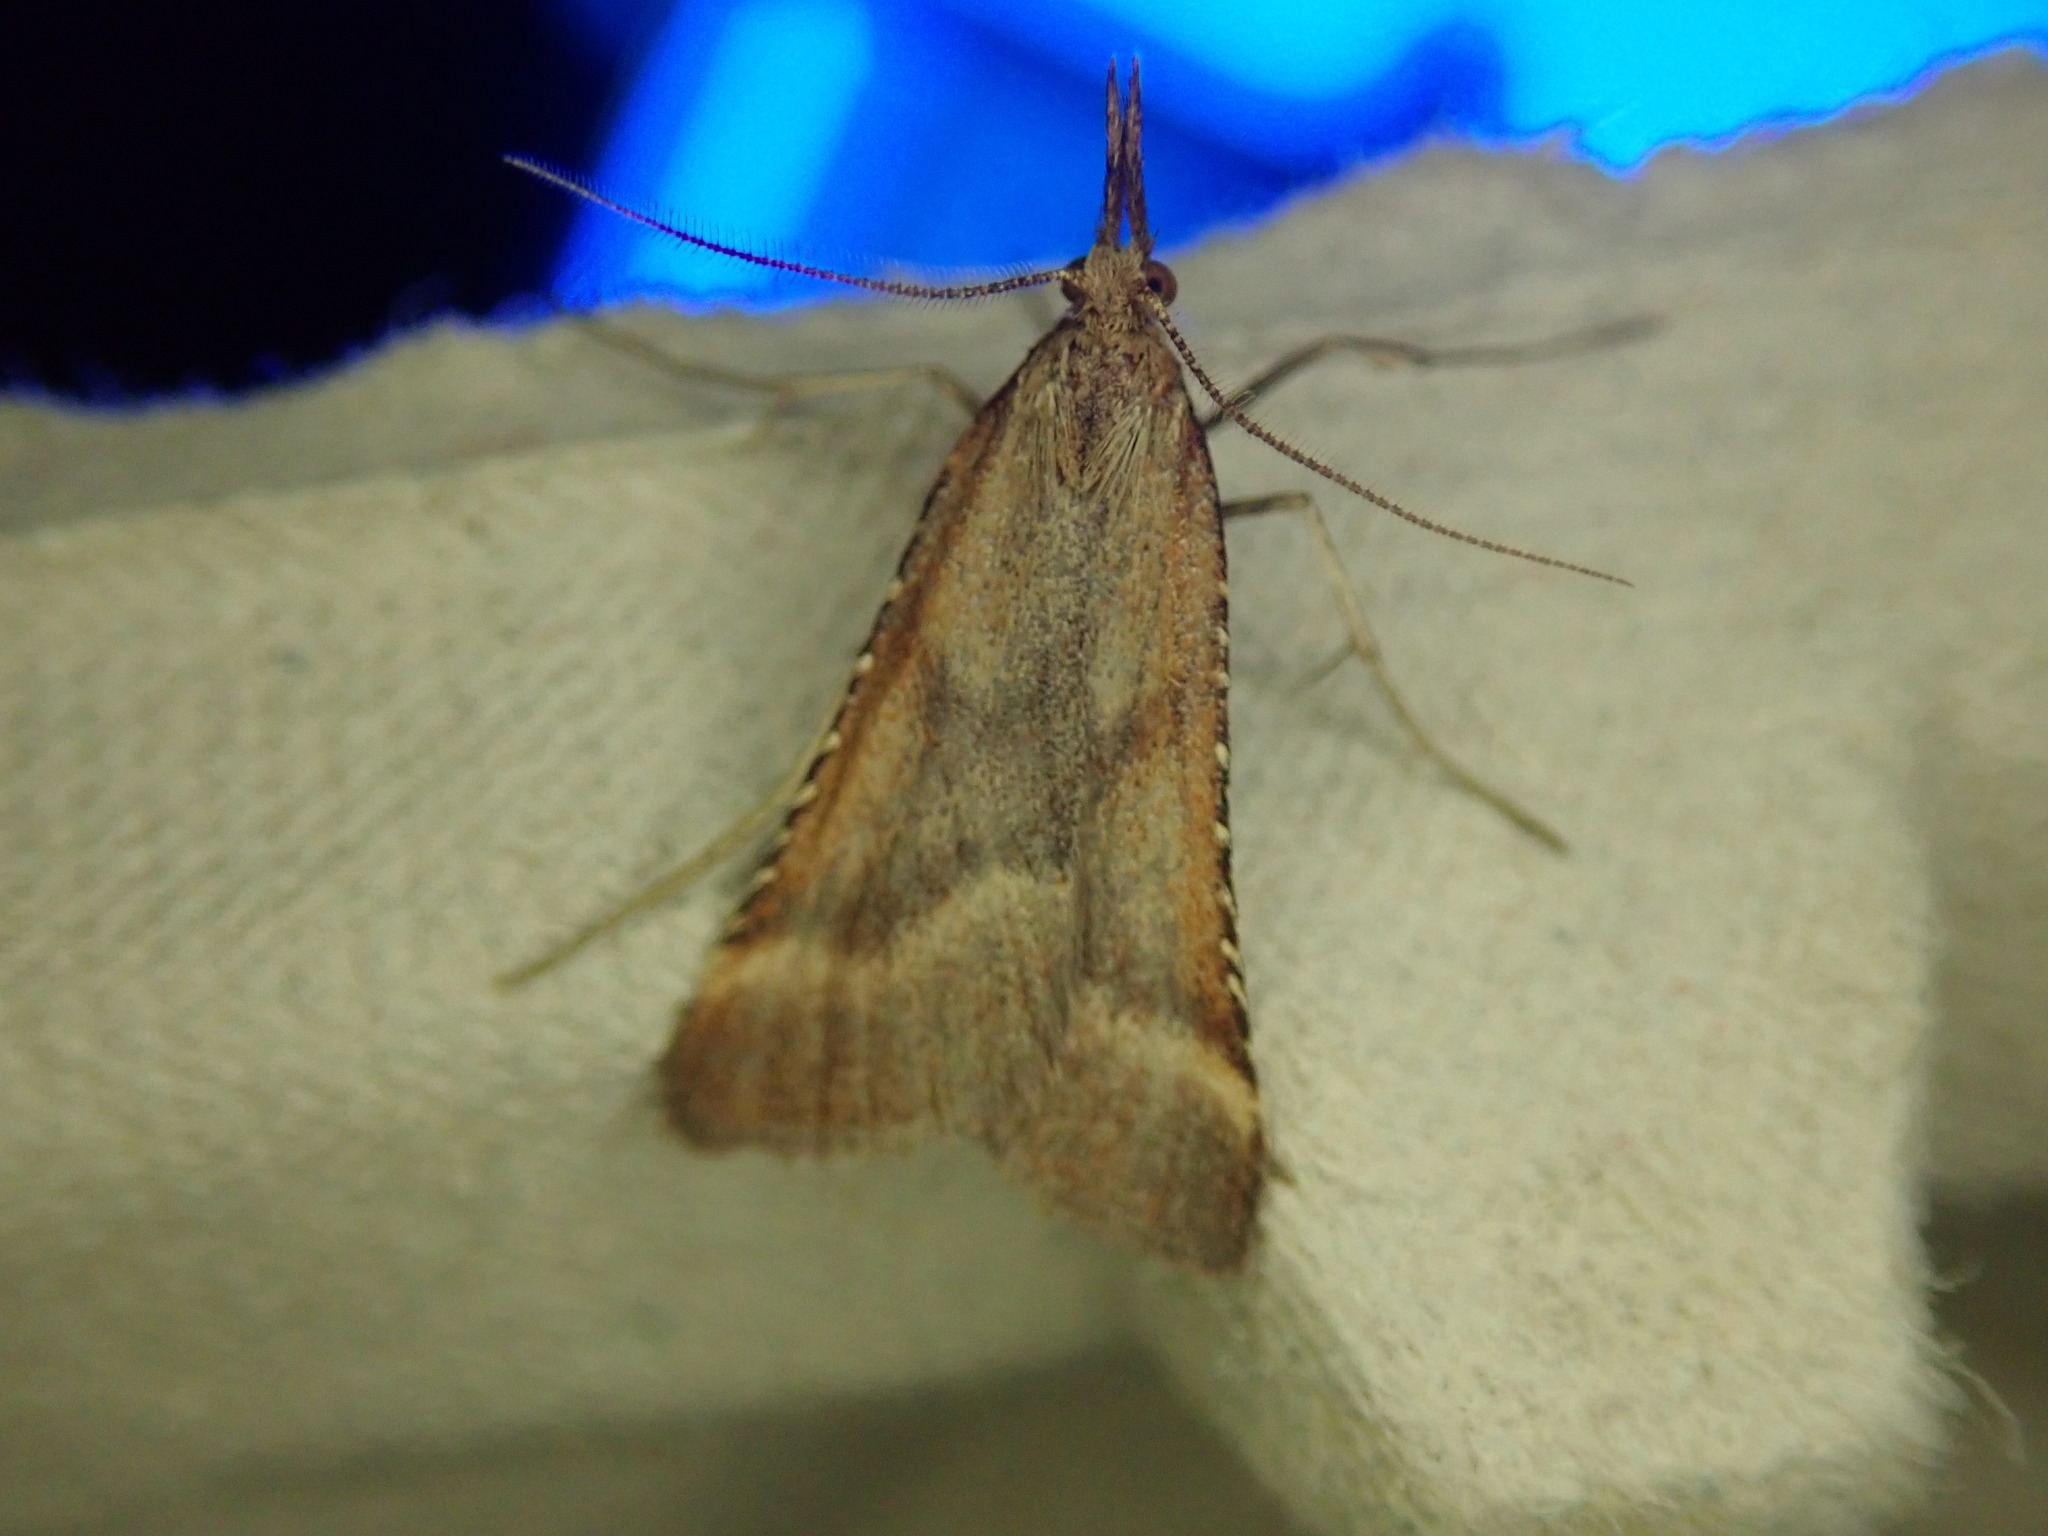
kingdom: Animalia
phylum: Arthropoda
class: Insecta
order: Lepidoptera
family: Pyralidae
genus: Synaphe
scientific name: Synaphe punctalis
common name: Long-legged tabby
